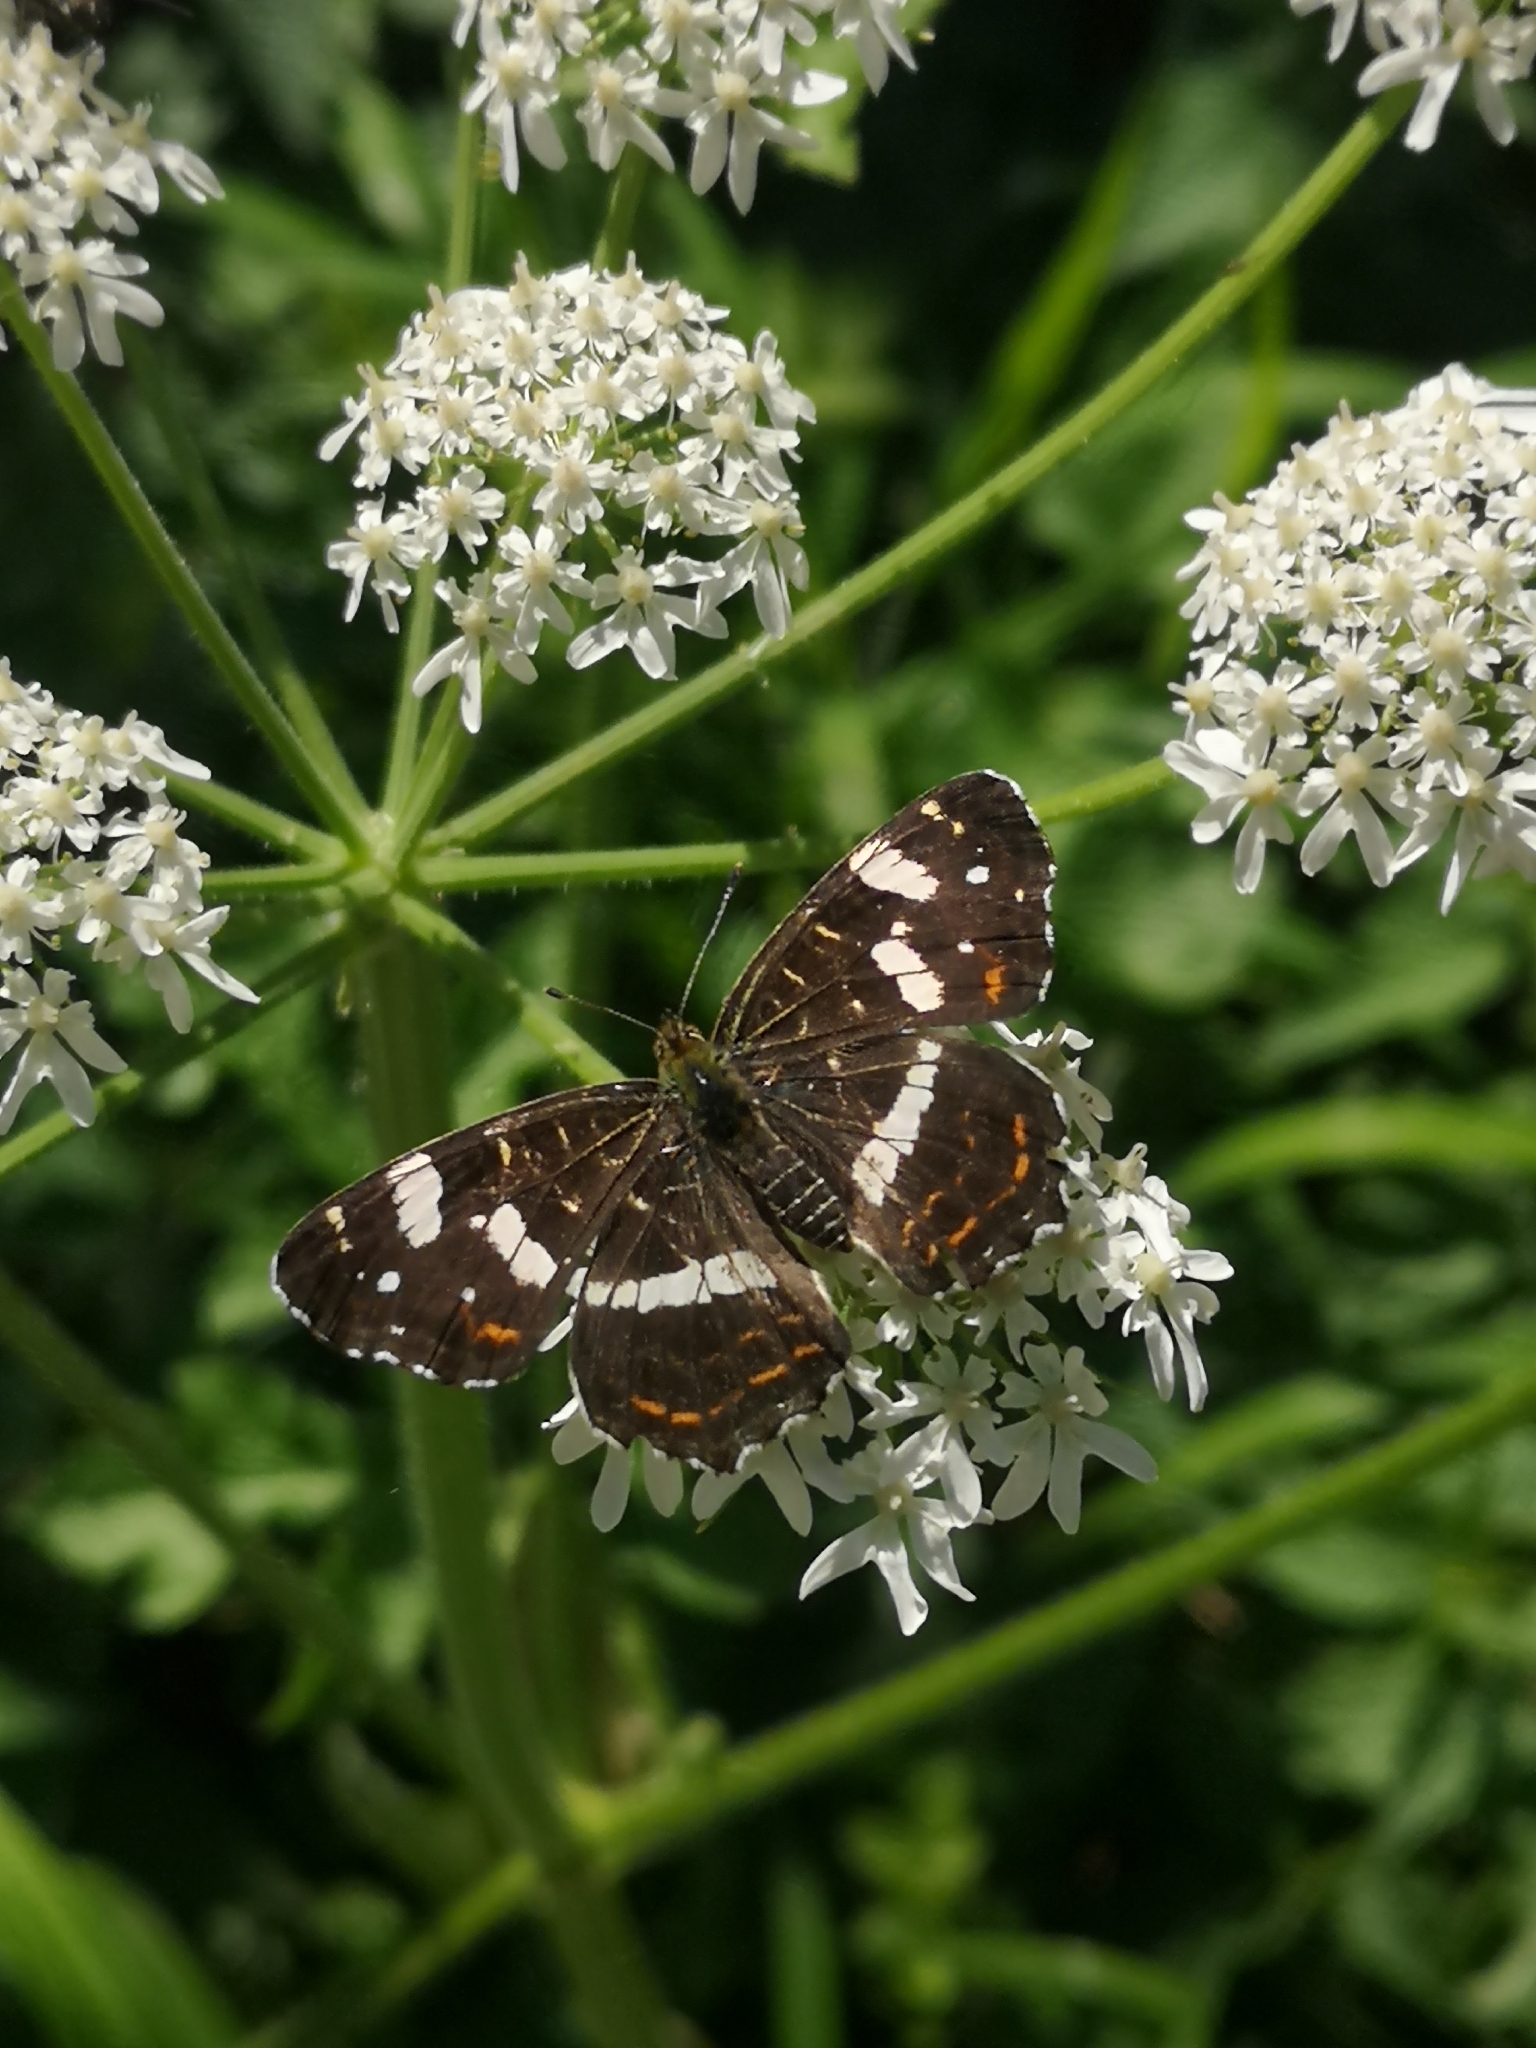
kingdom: Animalia
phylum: Arthropoda
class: Insecta
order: Lepidoptera
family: Nymphalidae
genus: Araschnia
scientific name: Araschnia levana
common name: Map butterfly
